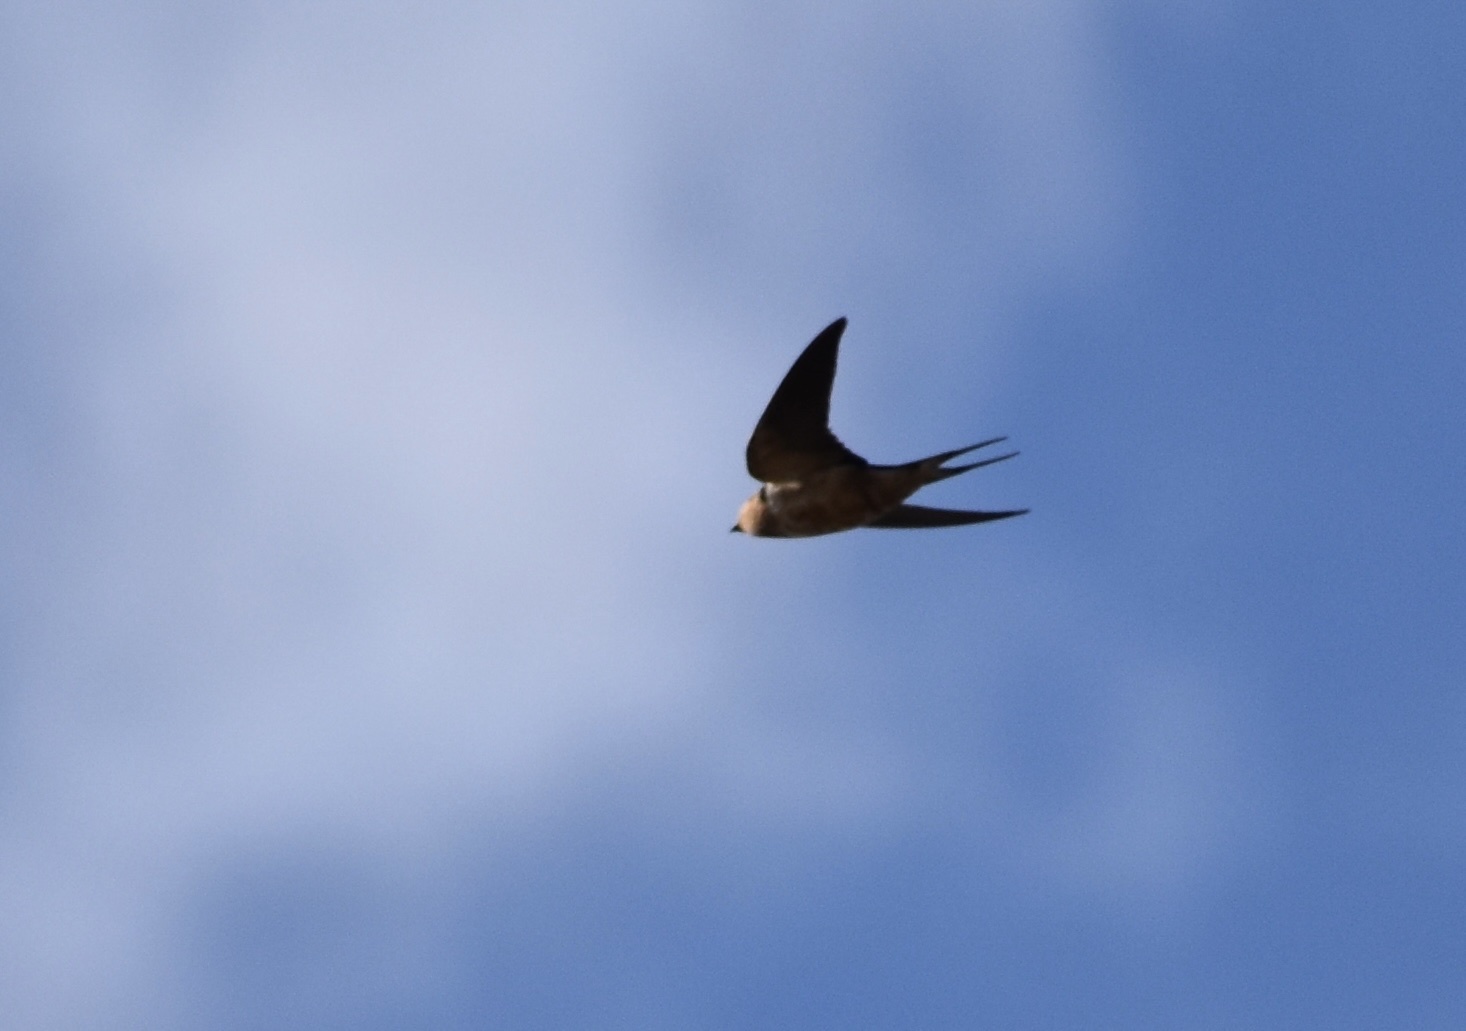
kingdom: Animalia
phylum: Chordata
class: Aves
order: Passeriformes
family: Hirundinidae
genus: Hirundo
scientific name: Hirundo rustica
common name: Barn swallow
